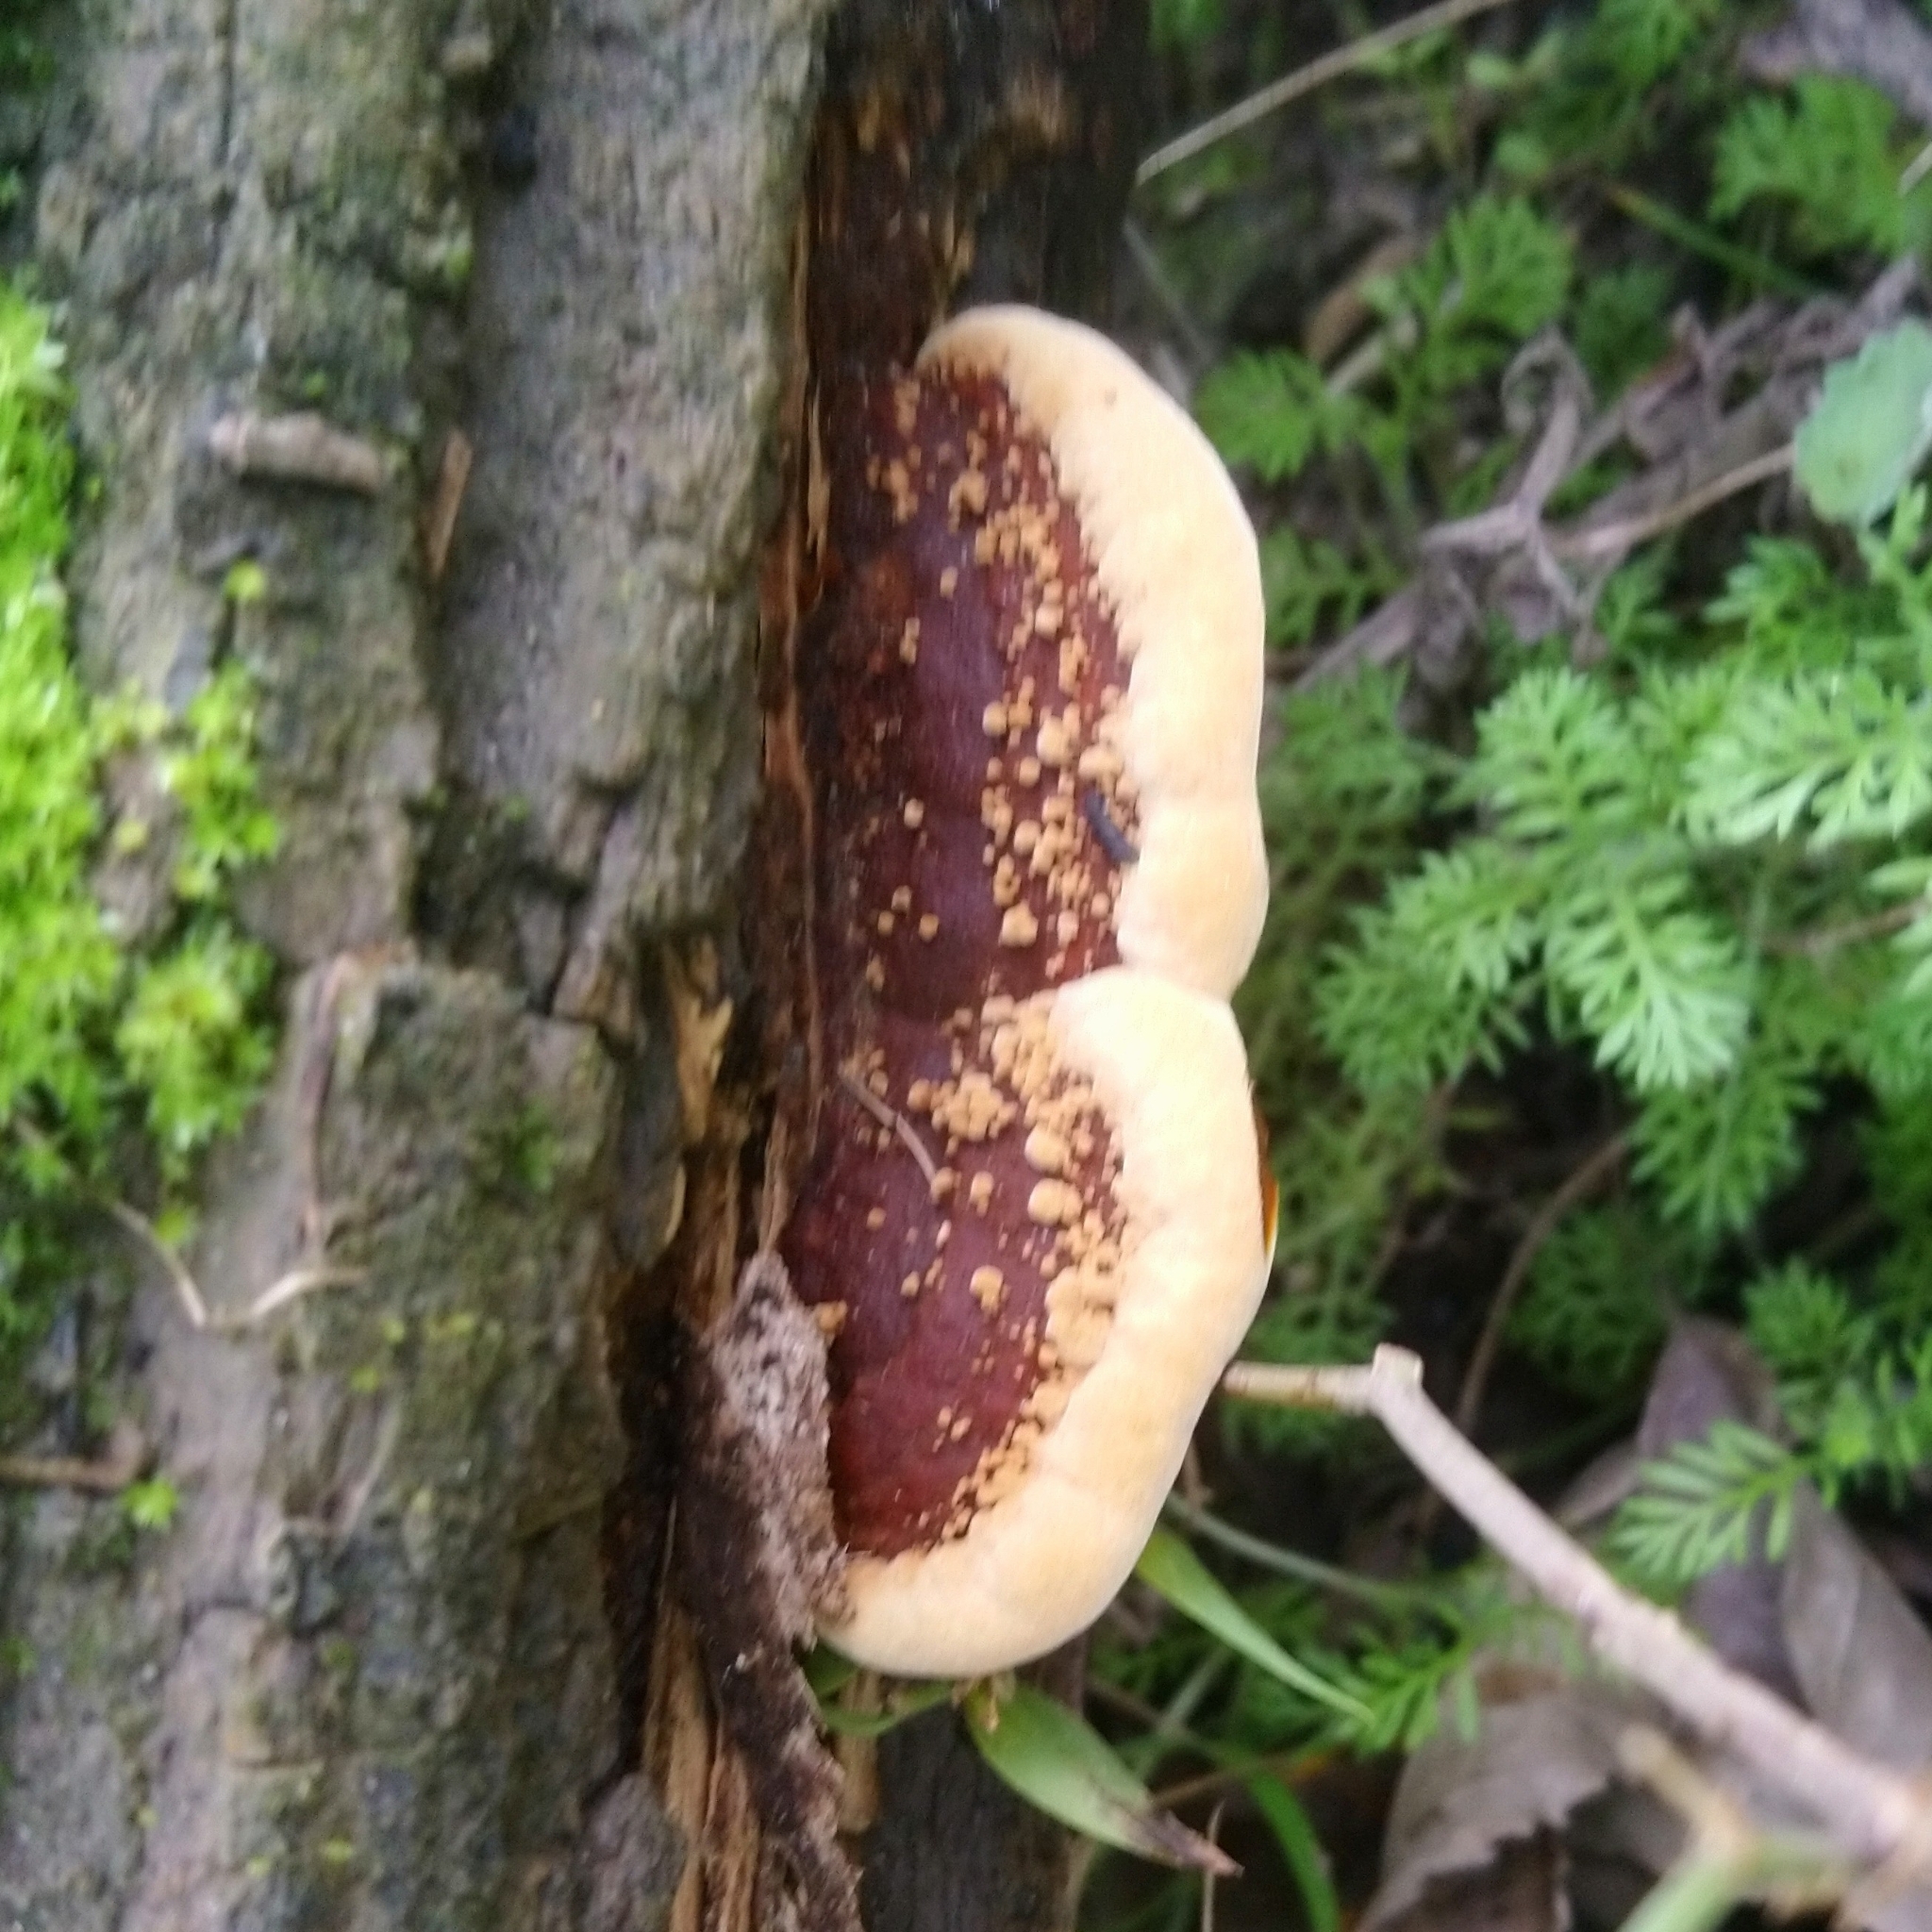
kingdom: Fungi
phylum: Basidiomycota
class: Agaricomycetes
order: Hymenochaetales
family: Hymenochaetaceae
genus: Phellinus
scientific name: Phellinus gilvus
